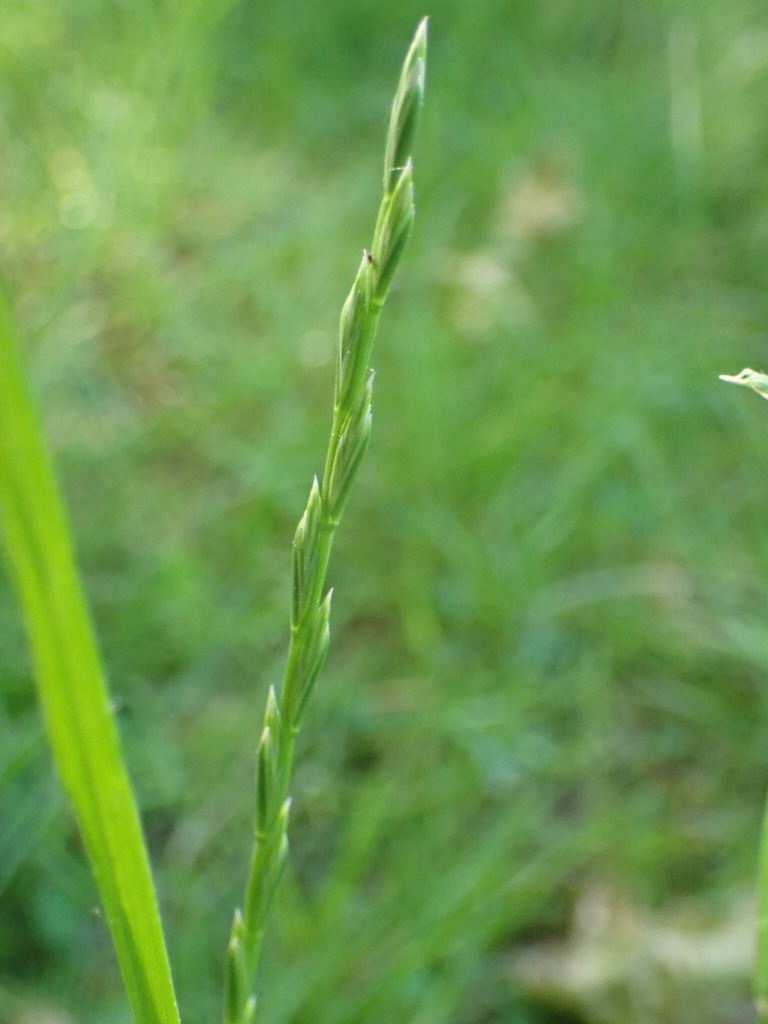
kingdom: Plantae
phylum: Tracheophyta
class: Liliopsida
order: Poales
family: Poaceae
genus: Lolium
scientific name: Lolium perenne
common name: Perennial ryegrass
